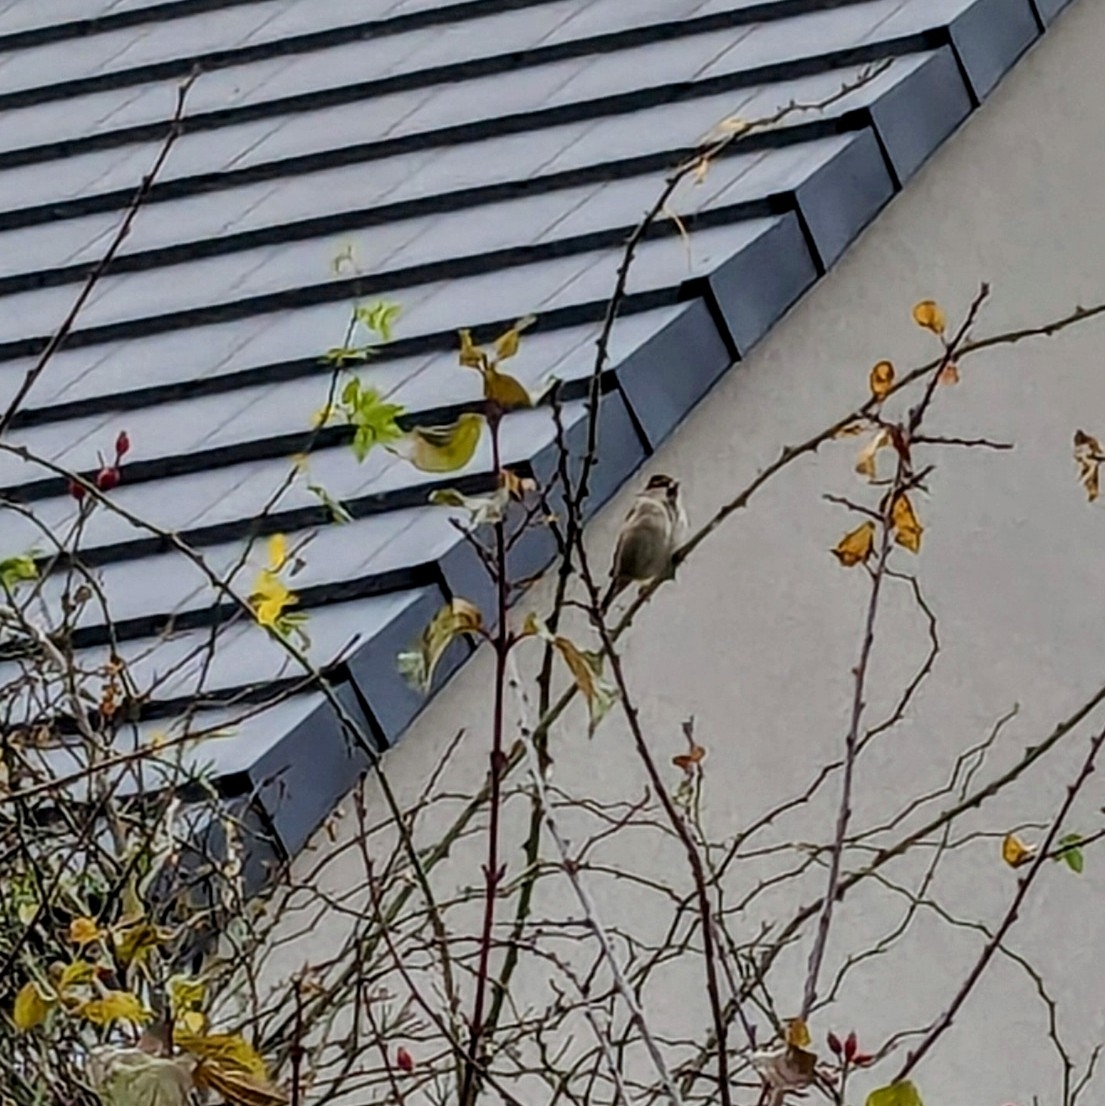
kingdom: Animalia
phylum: Chordata
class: Aves
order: Passeriformes
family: Passeridae
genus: Passer
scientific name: Passer domesticus
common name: House sparrow
